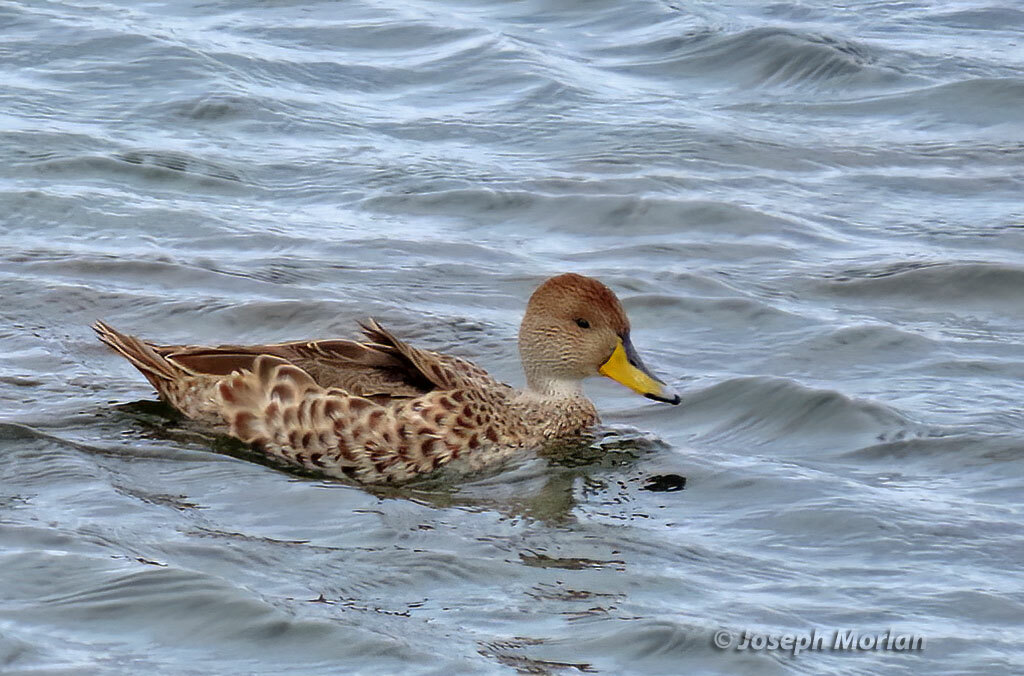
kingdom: Animalia
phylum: Chordata
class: Aves
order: Anseriformes
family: Anatidae
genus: Anas
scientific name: Anas georgica
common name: Yellow-billed pintail
